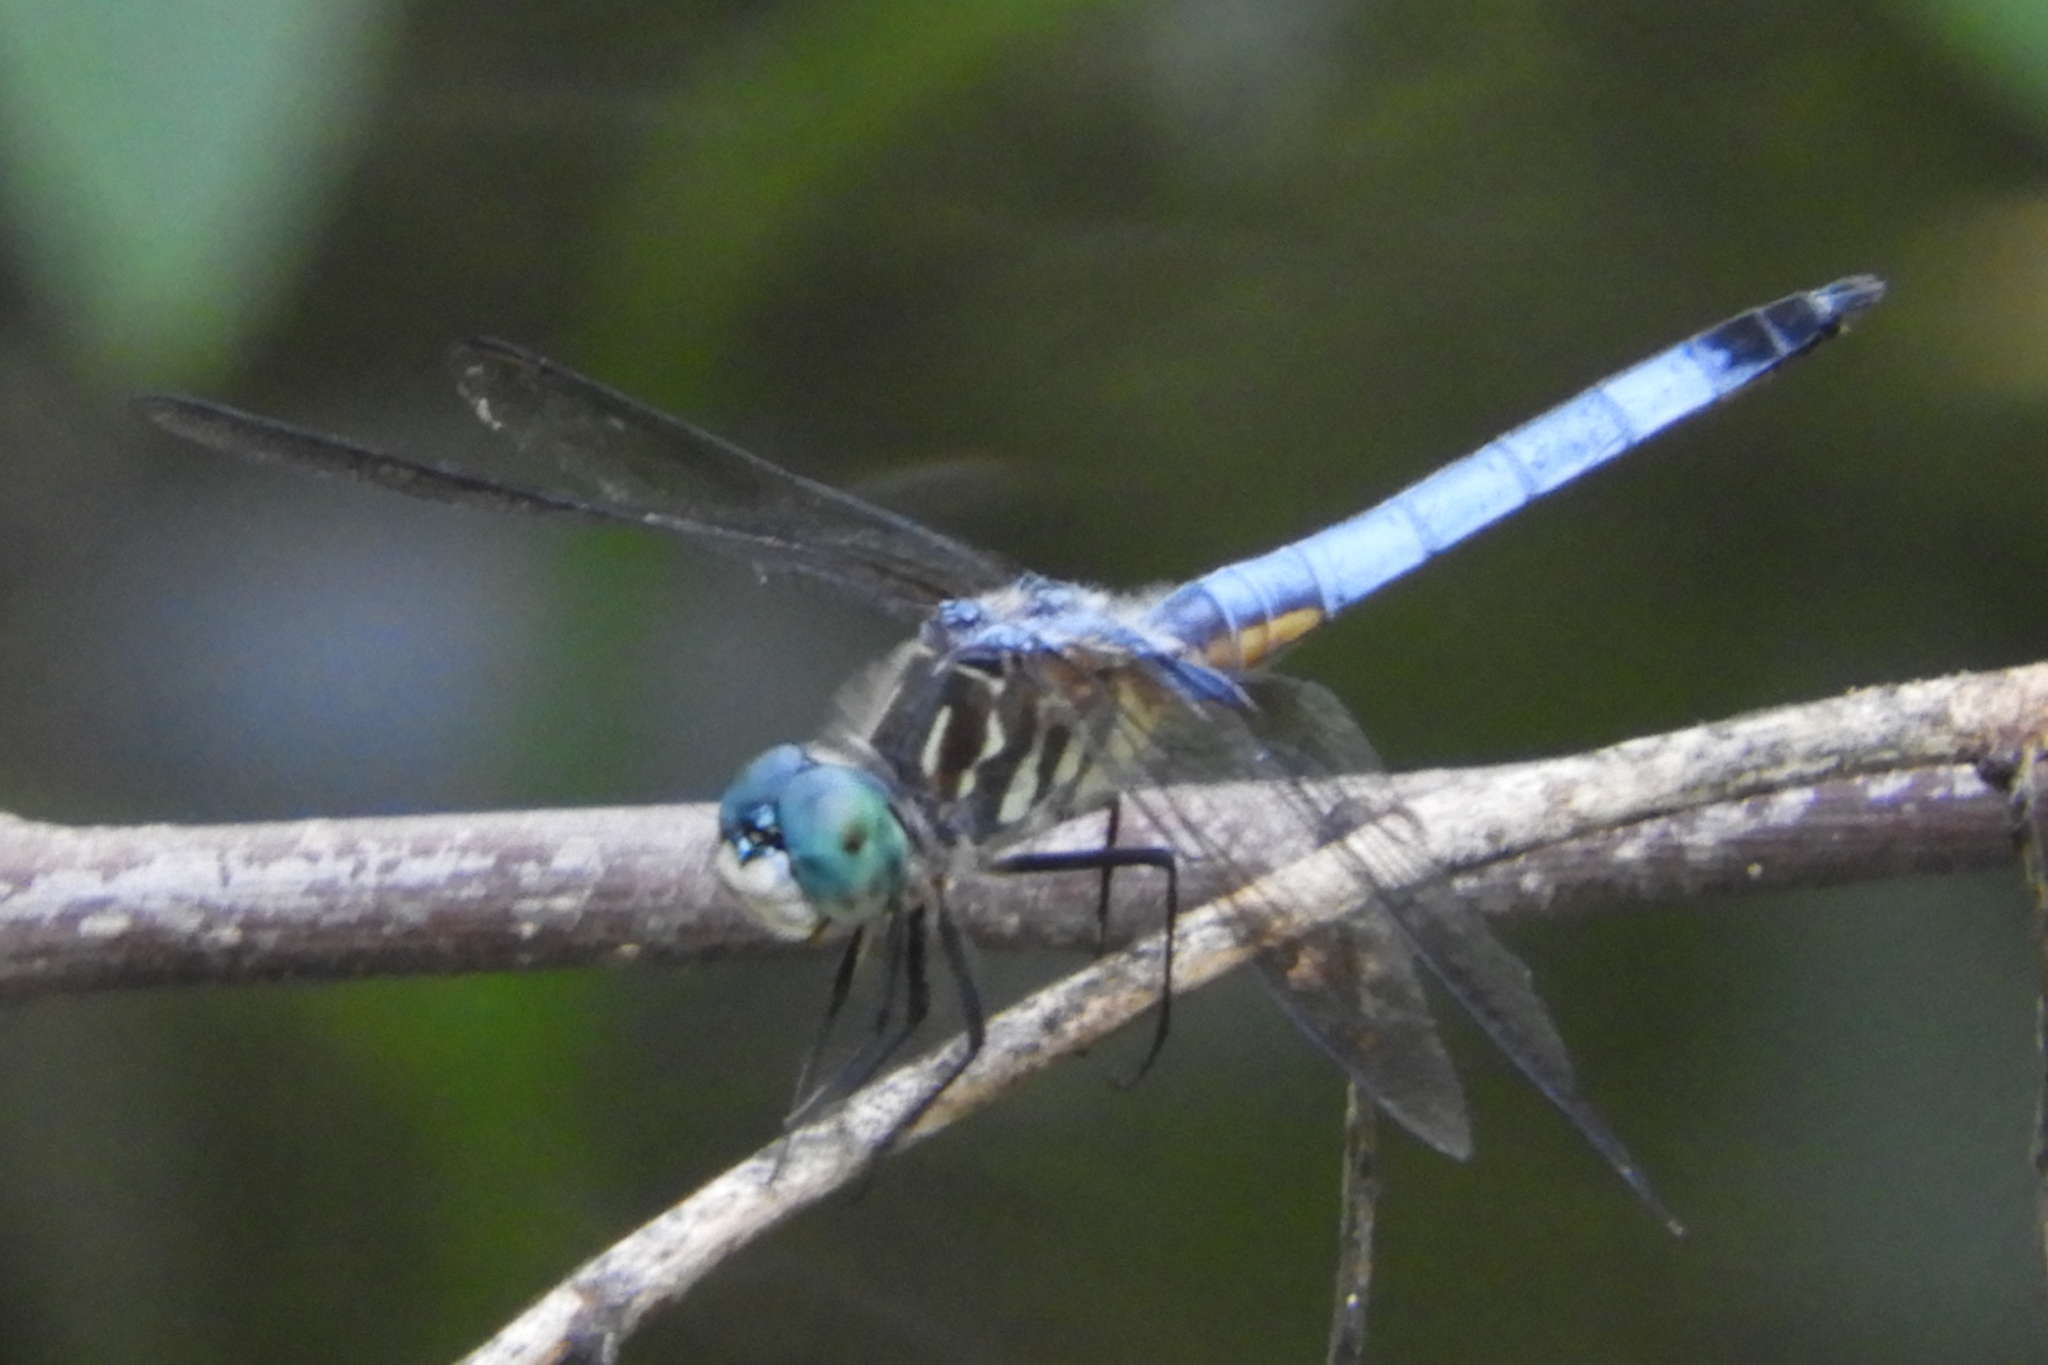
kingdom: Animalia
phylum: Arthropoda
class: Insecta
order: Odonata
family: Libellulidae
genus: Pachydiplax
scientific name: Pachydiplax longipennis
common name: Blue dasher
